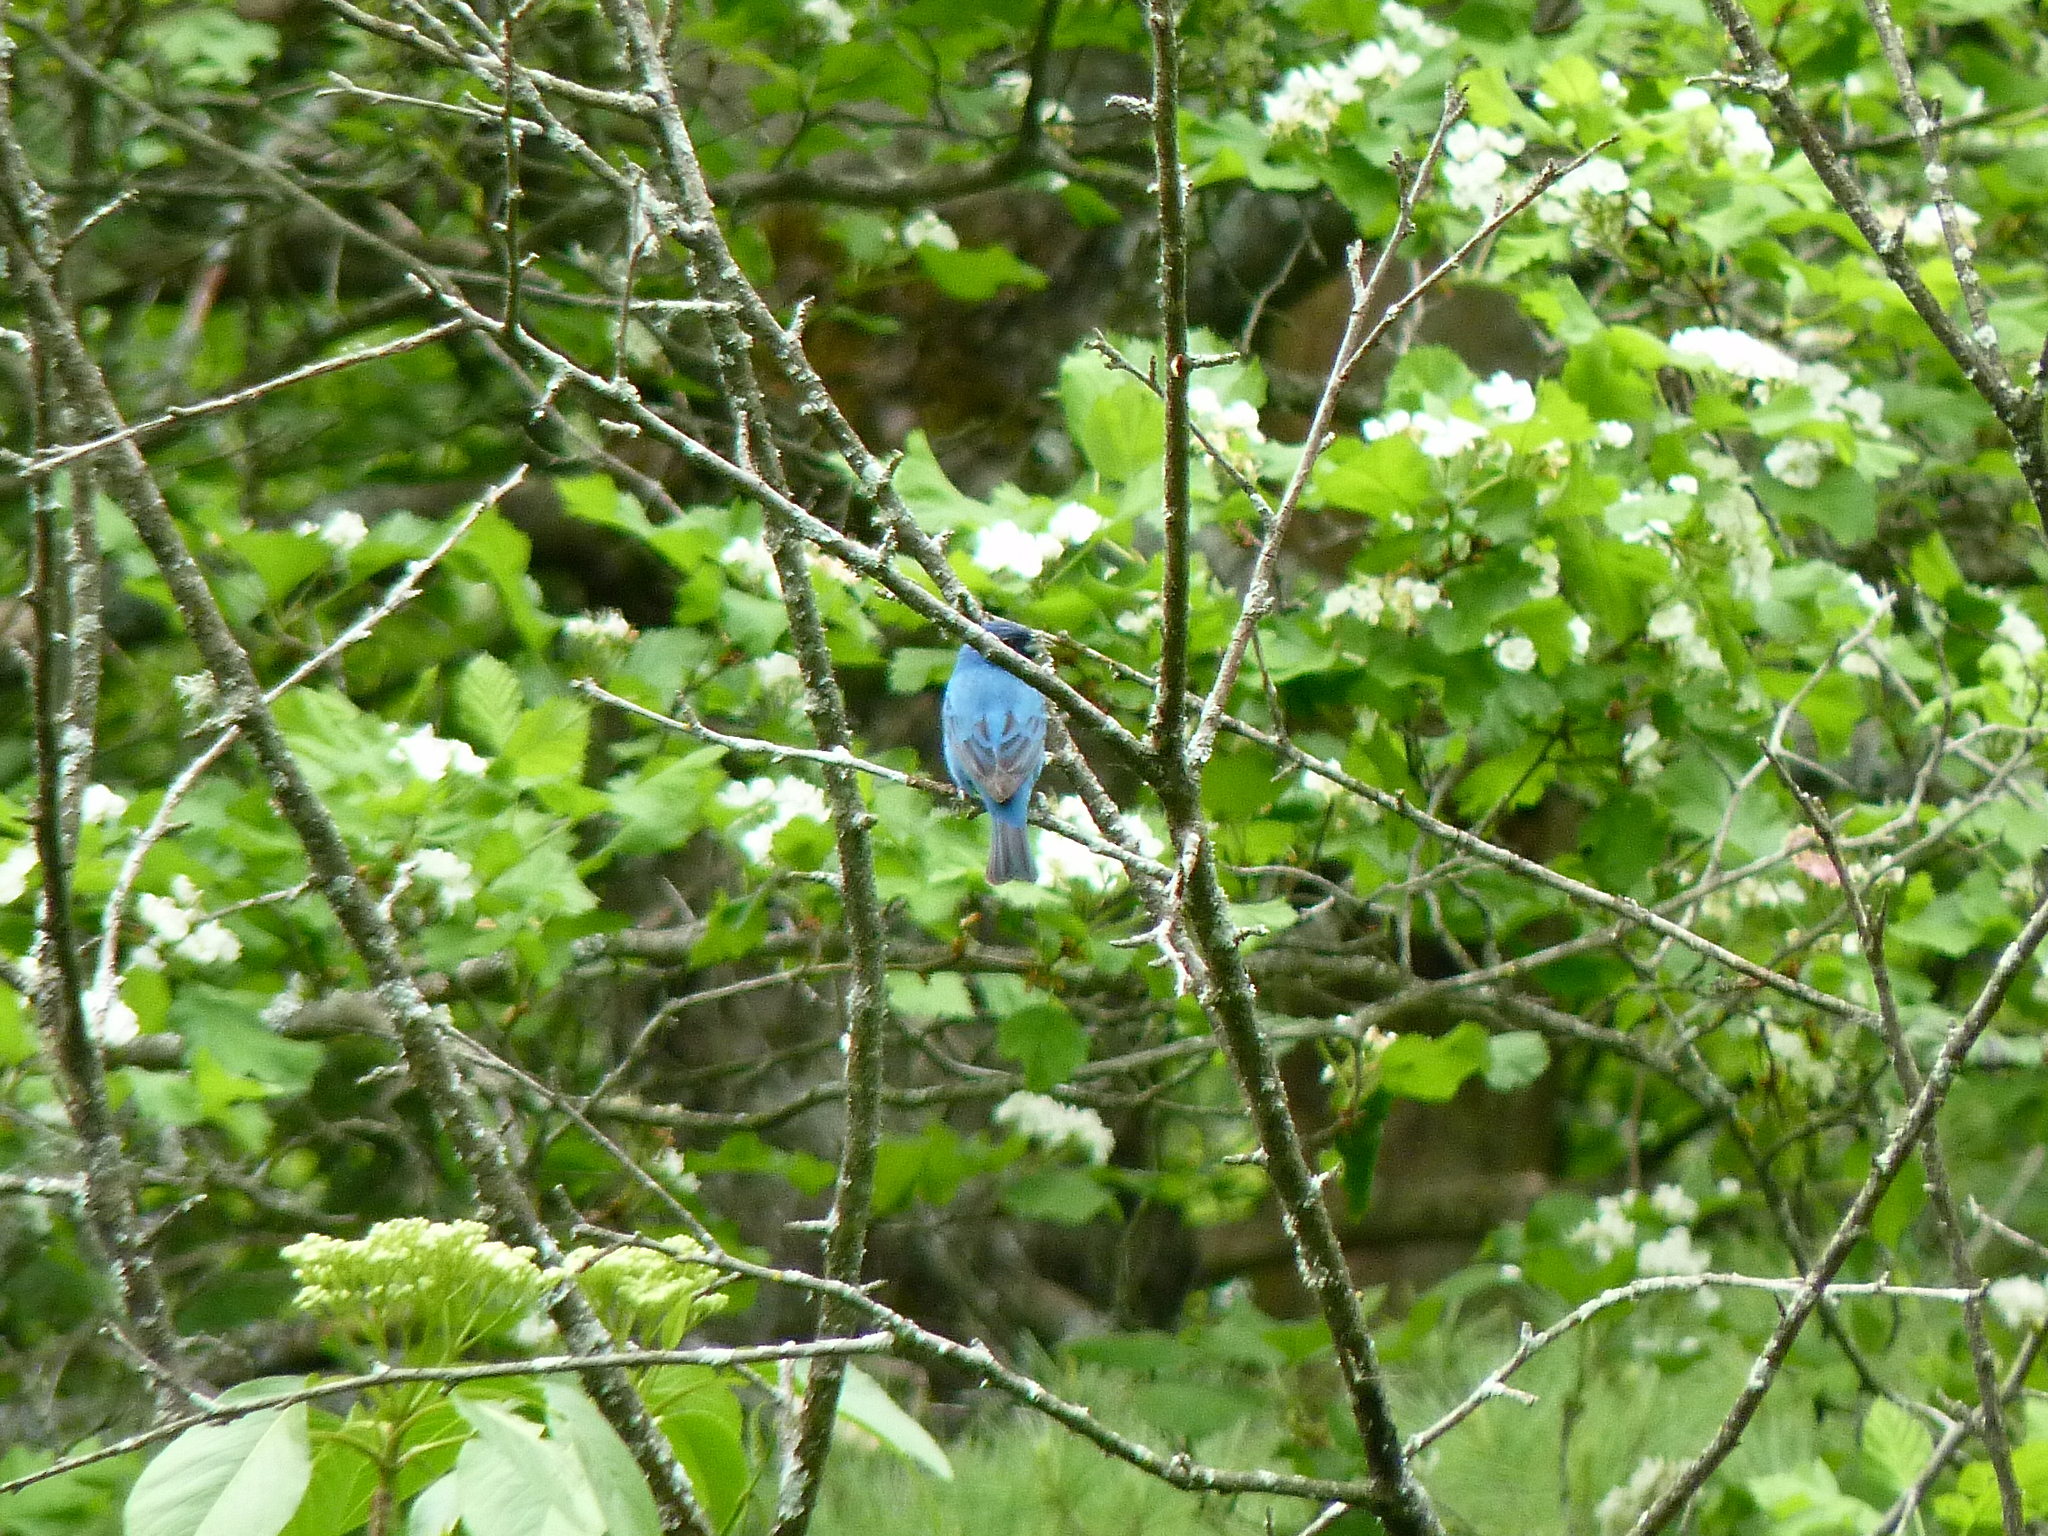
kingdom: Animalia
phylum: Chordata
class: Aves
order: Passeriformes
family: Cardinalidae
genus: Passerina
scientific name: Passerina cyanea
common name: Indigo bunting
